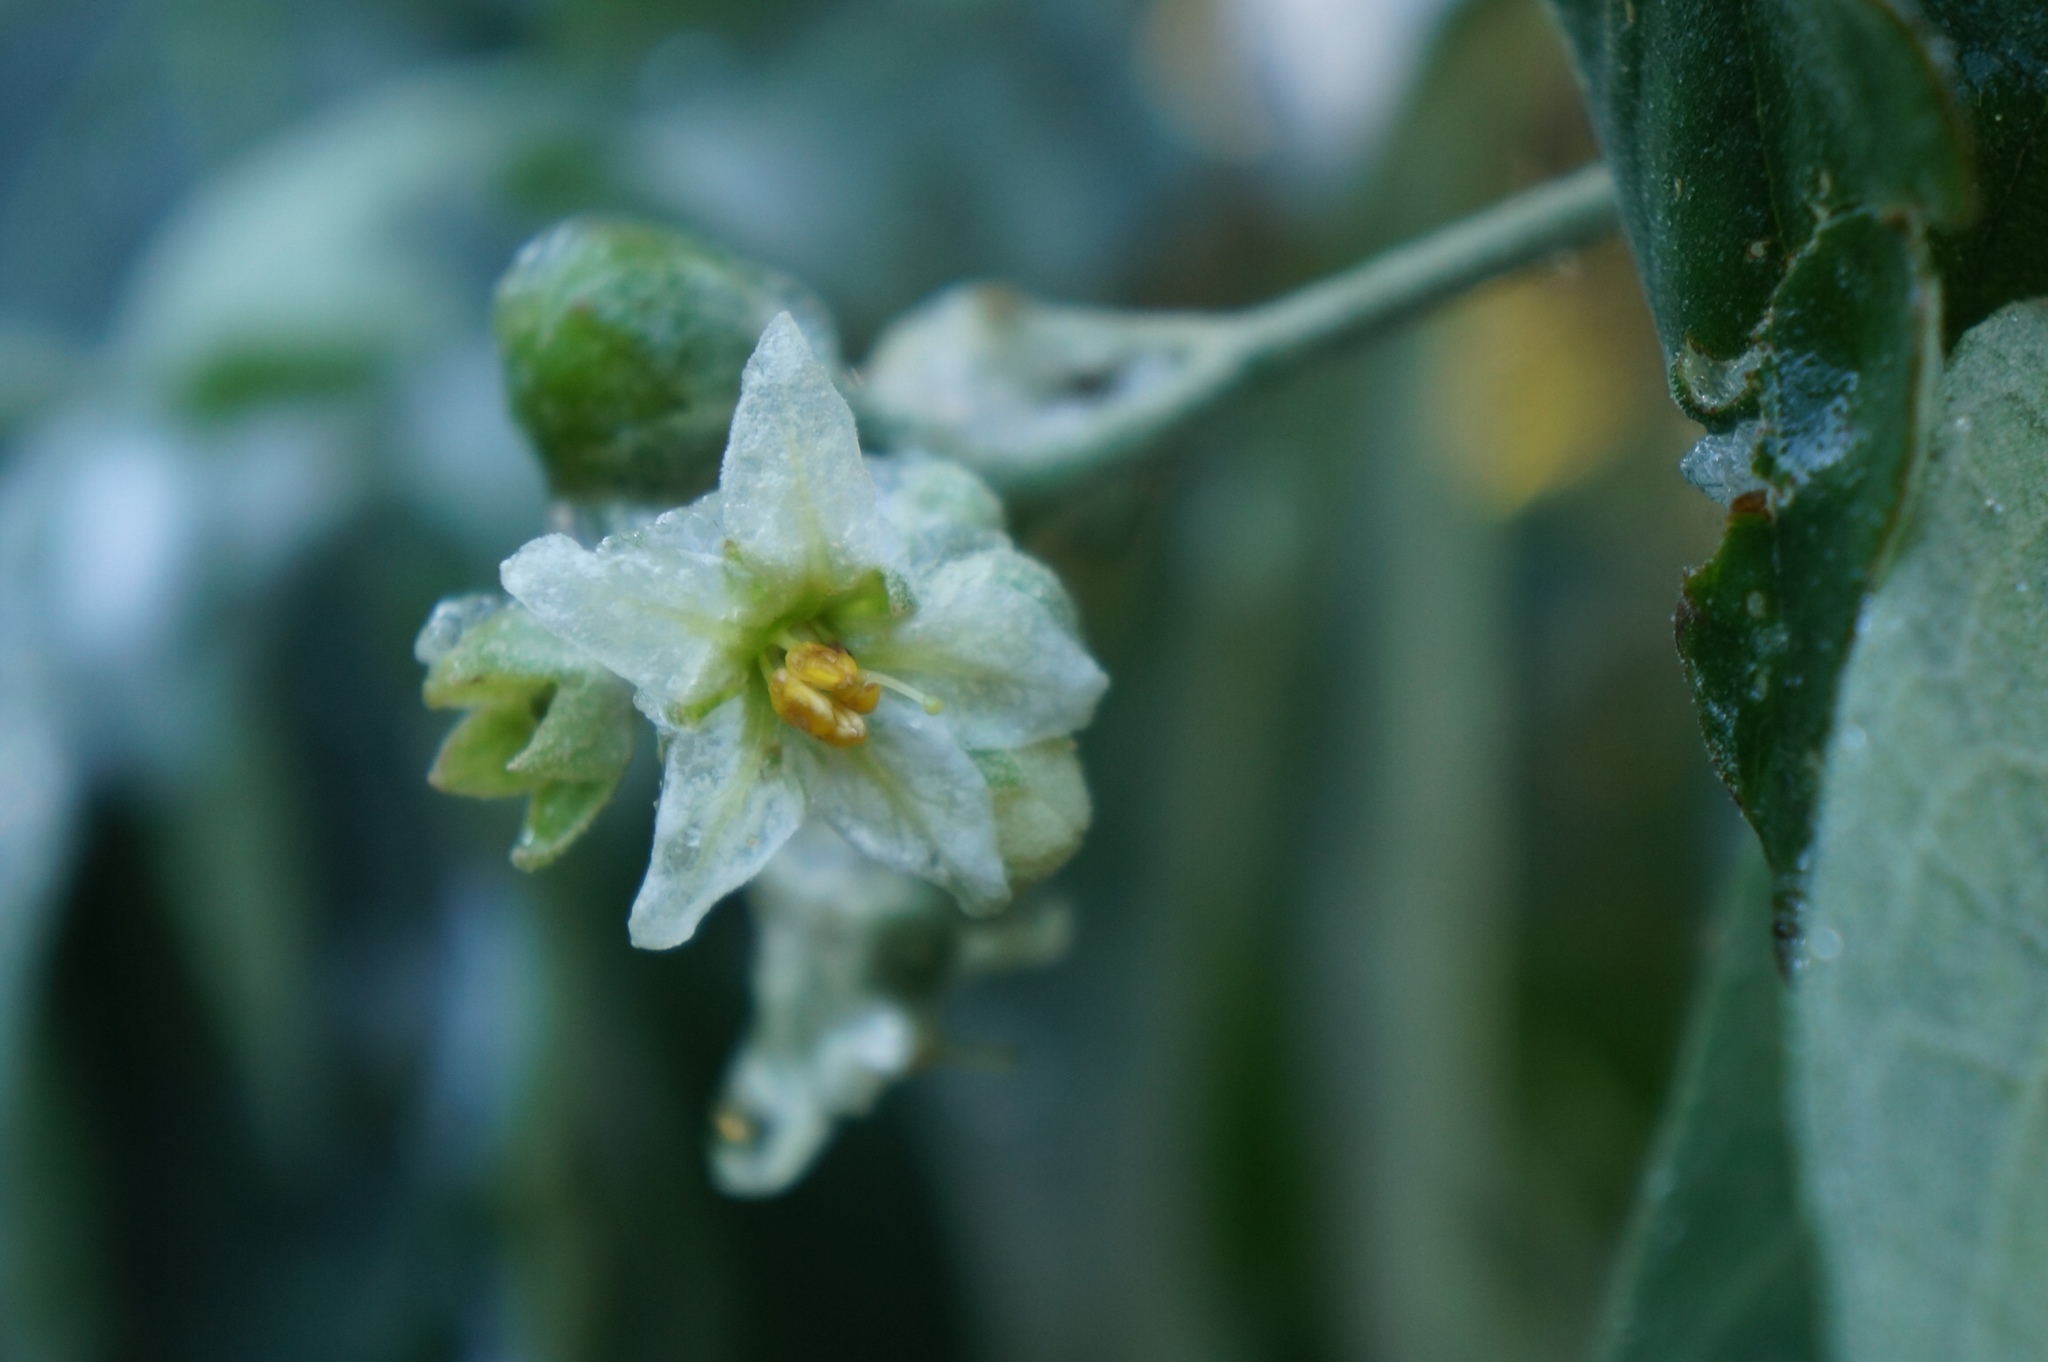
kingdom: Plantae
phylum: Tracheophyta
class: Magnoliopsida
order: Solanales
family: Solanaceae
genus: Solanum
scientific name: Solanum erianthum
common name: Tobacco-tree
